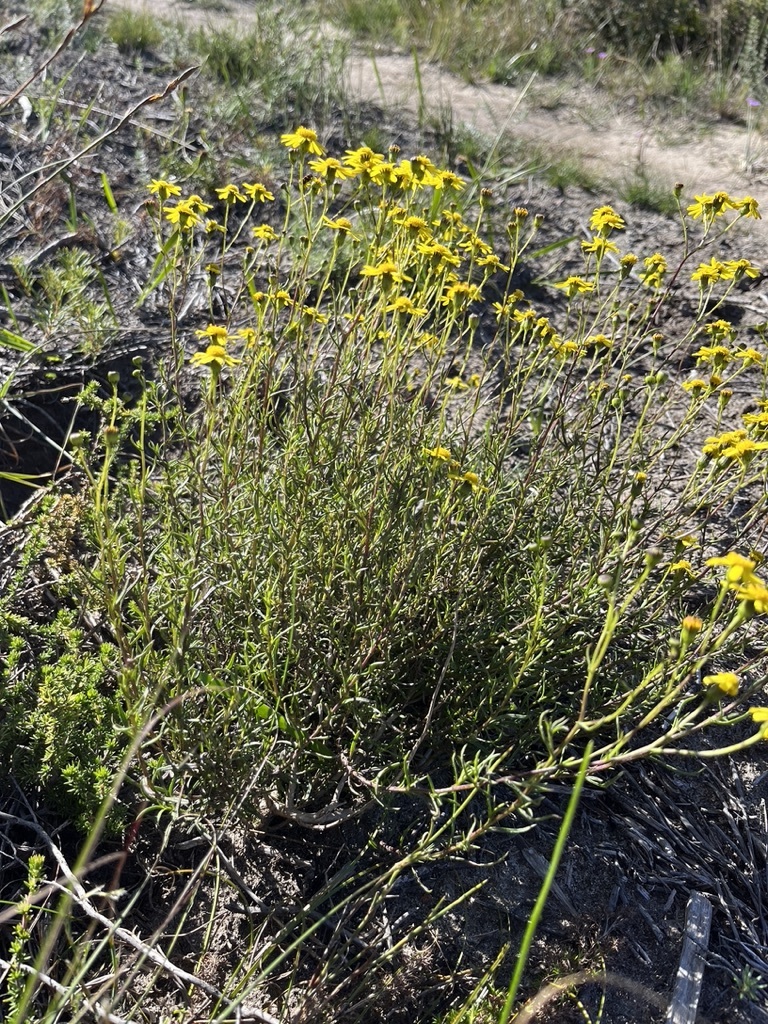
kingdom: Plantae
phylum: Tracheophyta
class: Magnoliopsida
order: Asterales
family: Asteraceae
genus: Senecio
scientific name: Senecio burchellii
